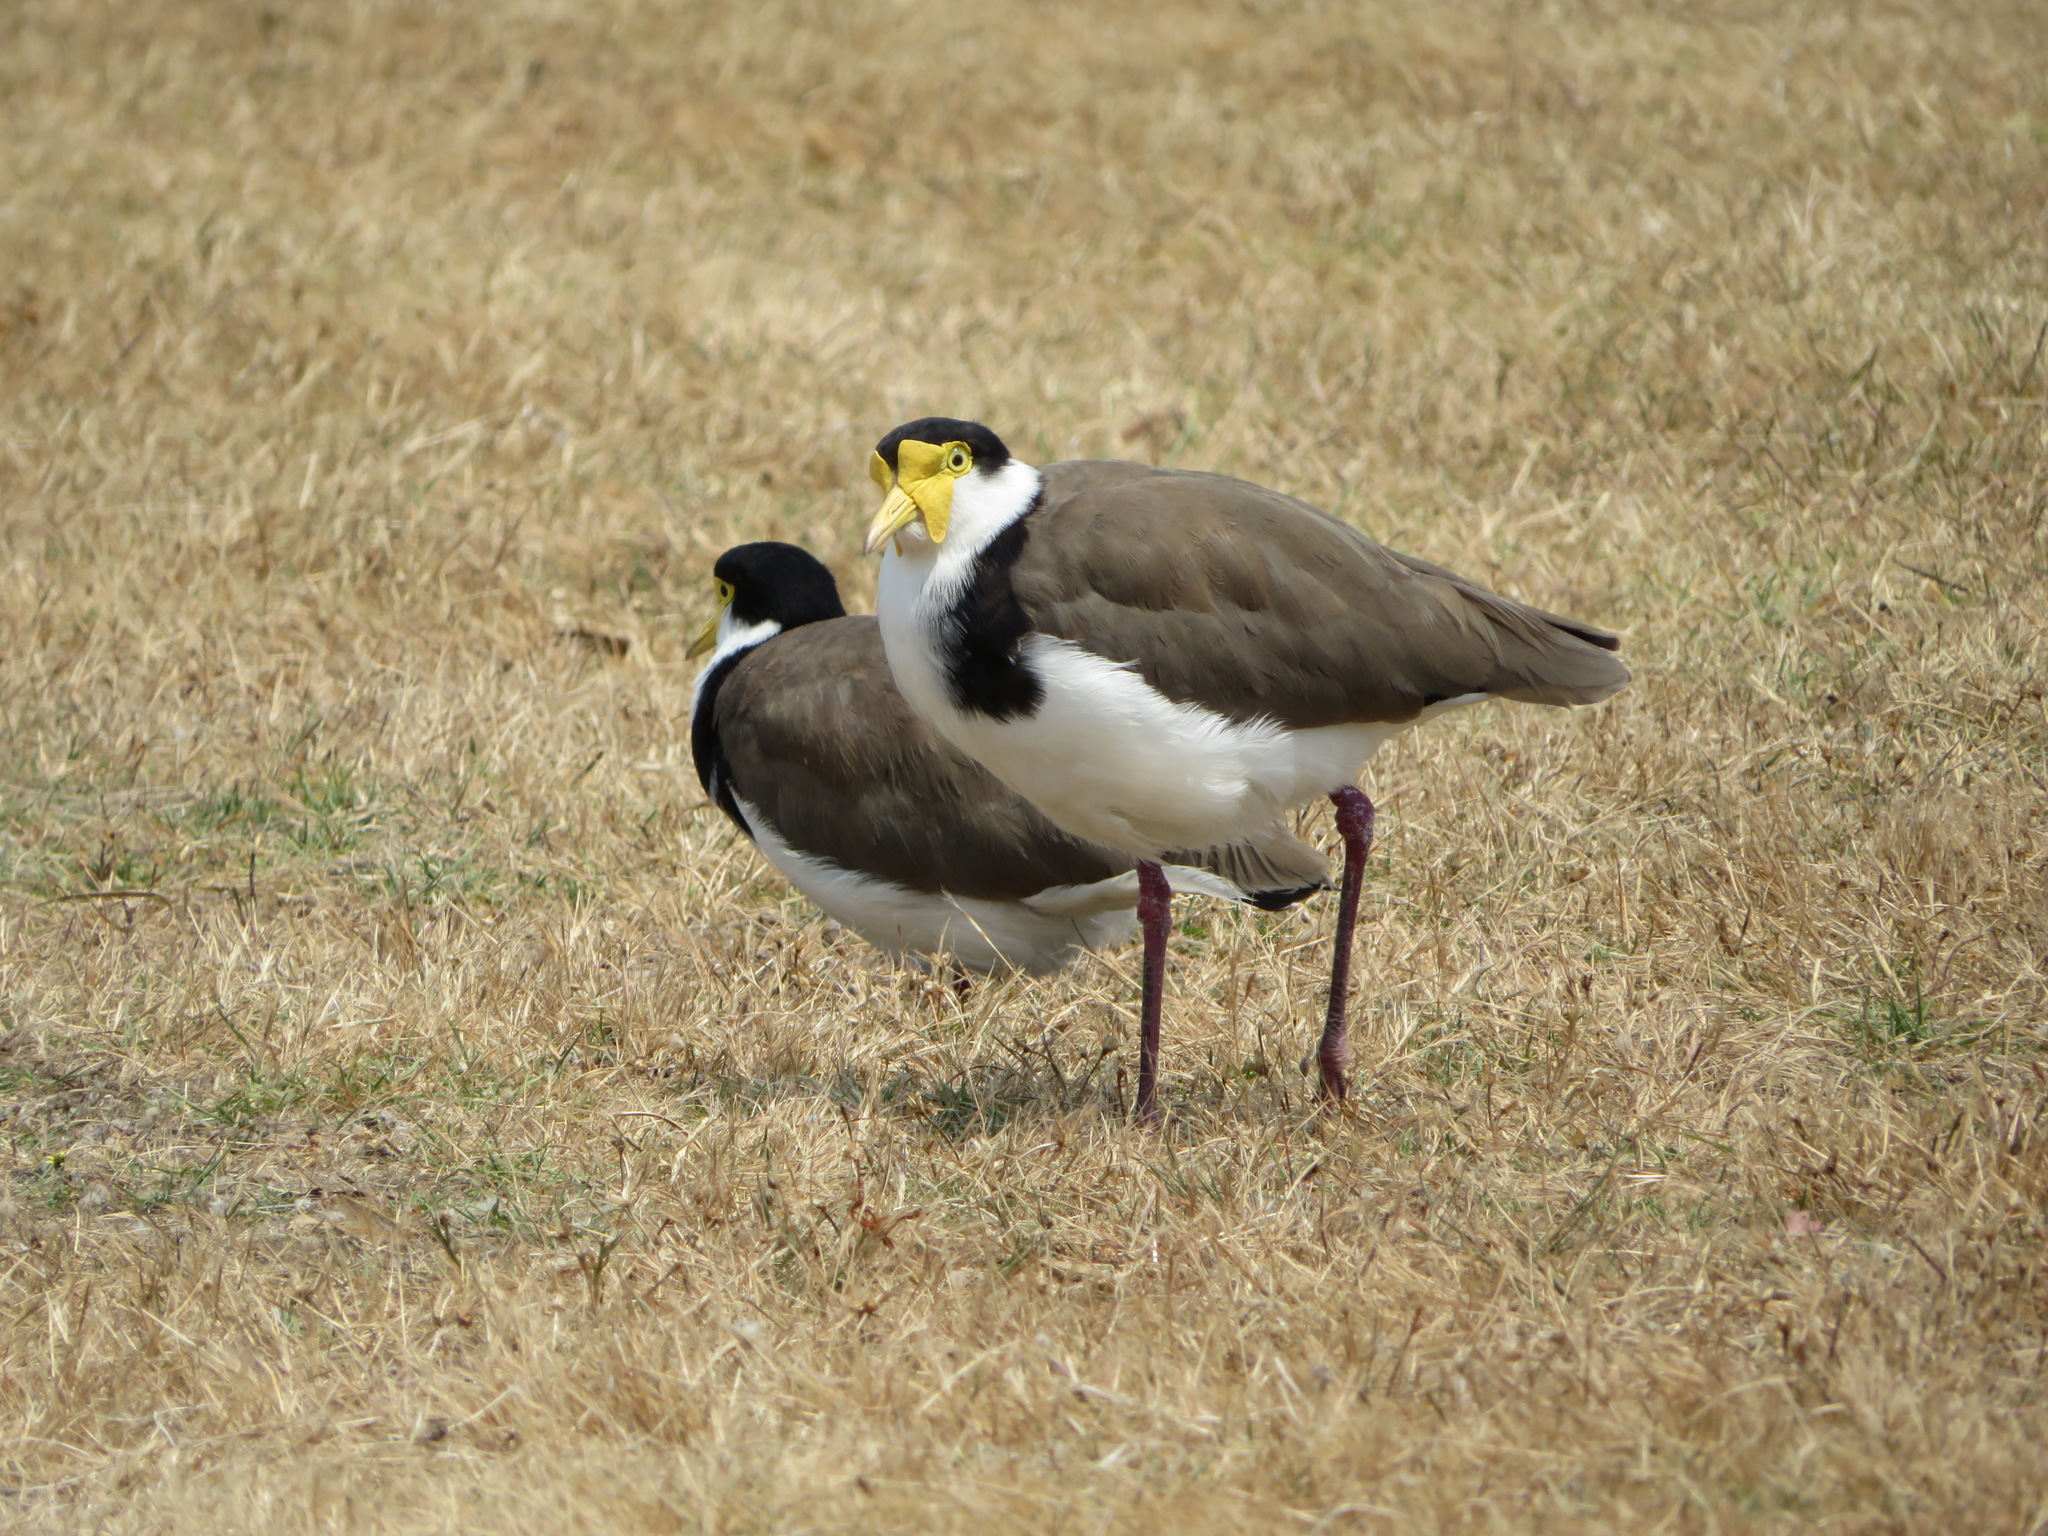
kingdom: Animalia
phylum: Chordata
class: Aves
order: Charadriiformes
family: Charadriidae
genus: Vanellus
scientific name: Vanellus miles
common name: Masked lapwing
